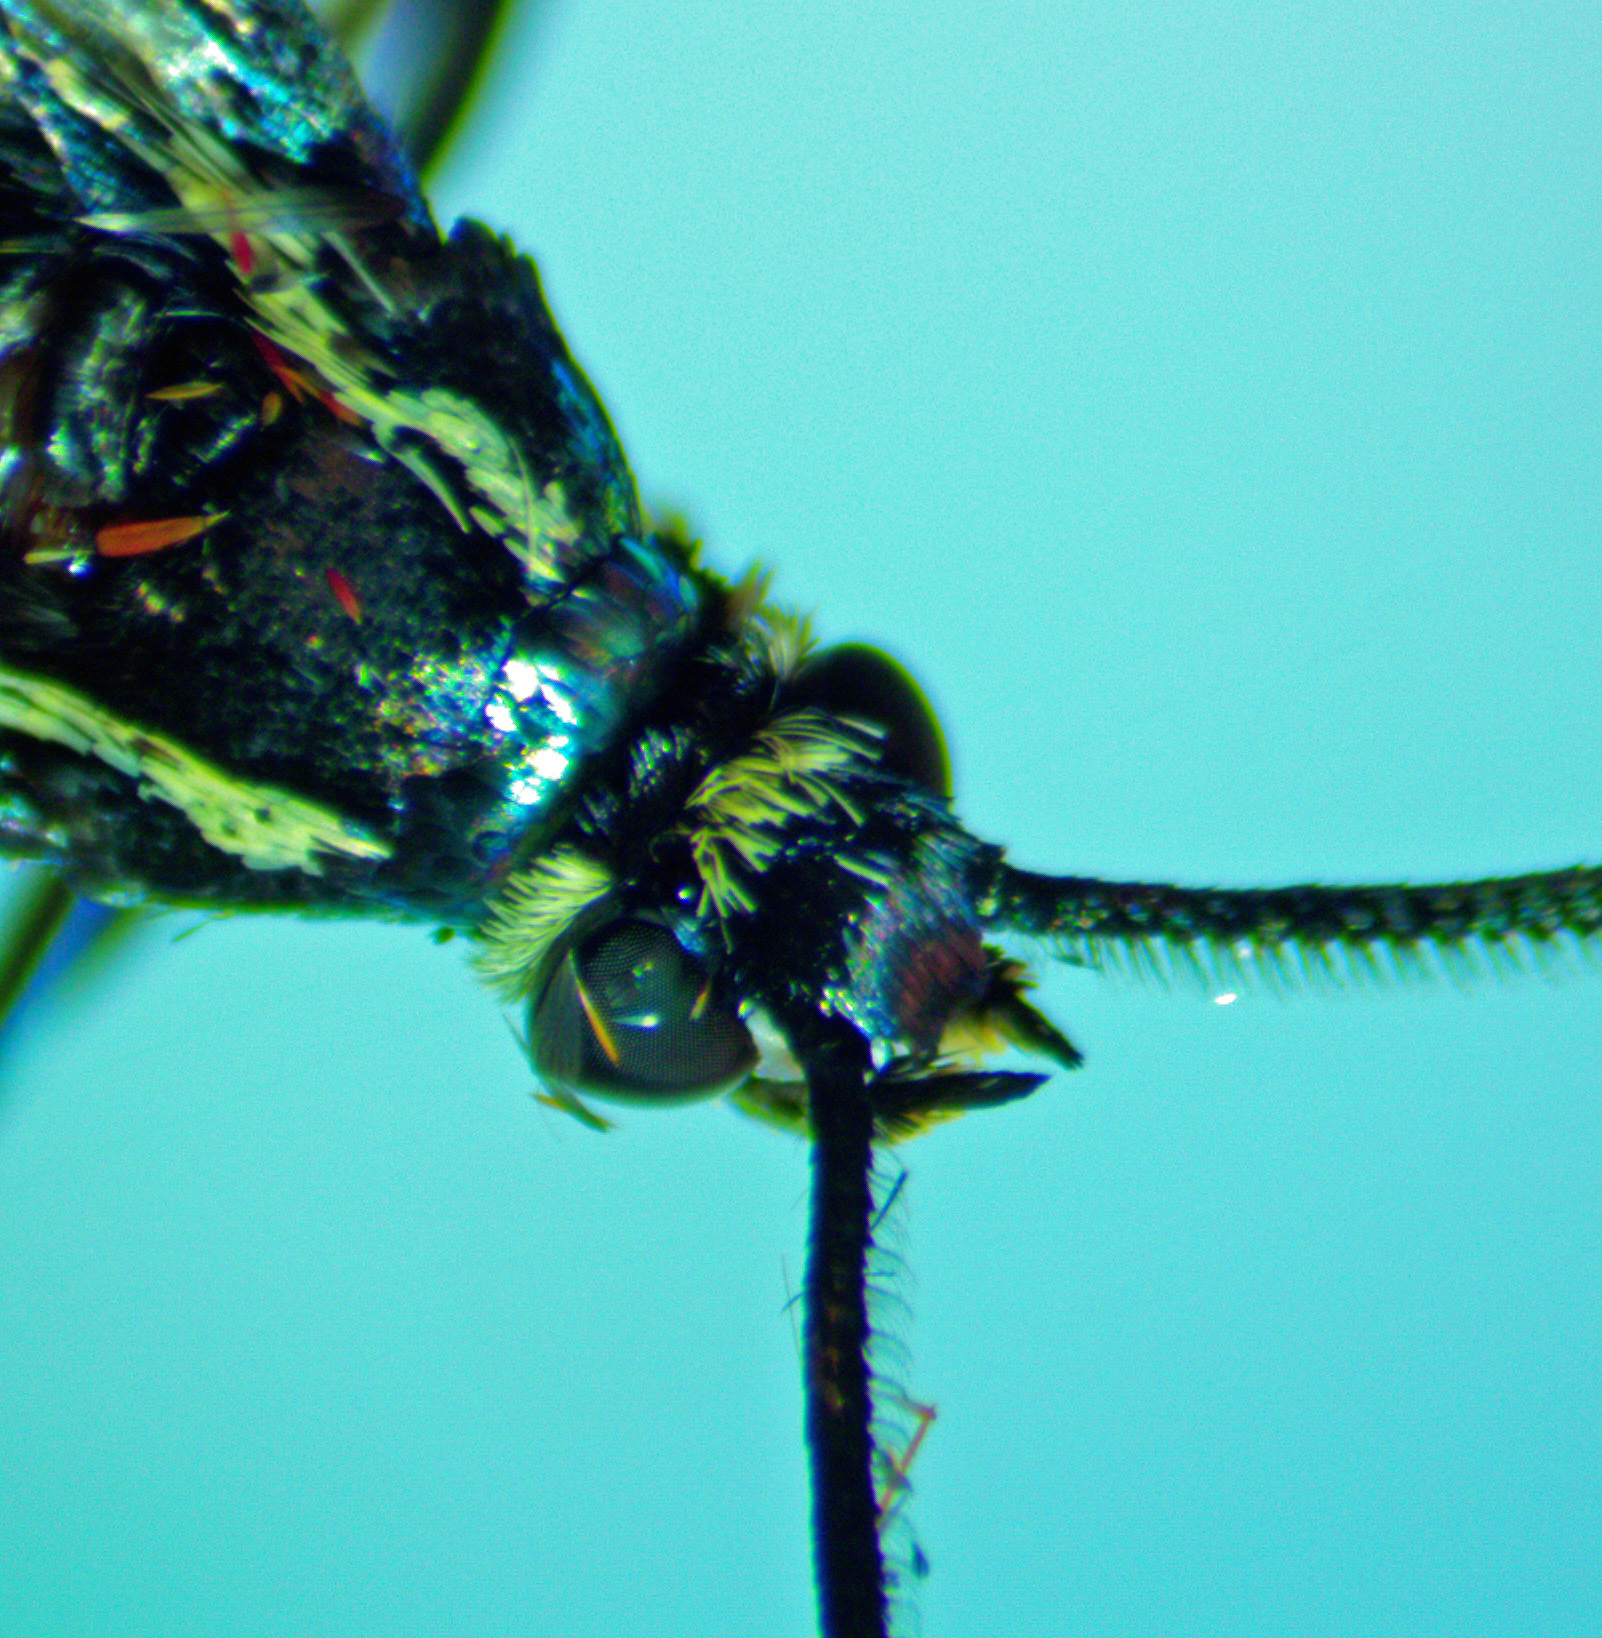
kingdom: Animalia
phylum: Arthropoda
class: Insecta
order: Lepidoptera
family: Sesiidae
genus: Synanthedon
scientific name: Synanthedon pictipes
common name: Lesser peachtree borer moth
